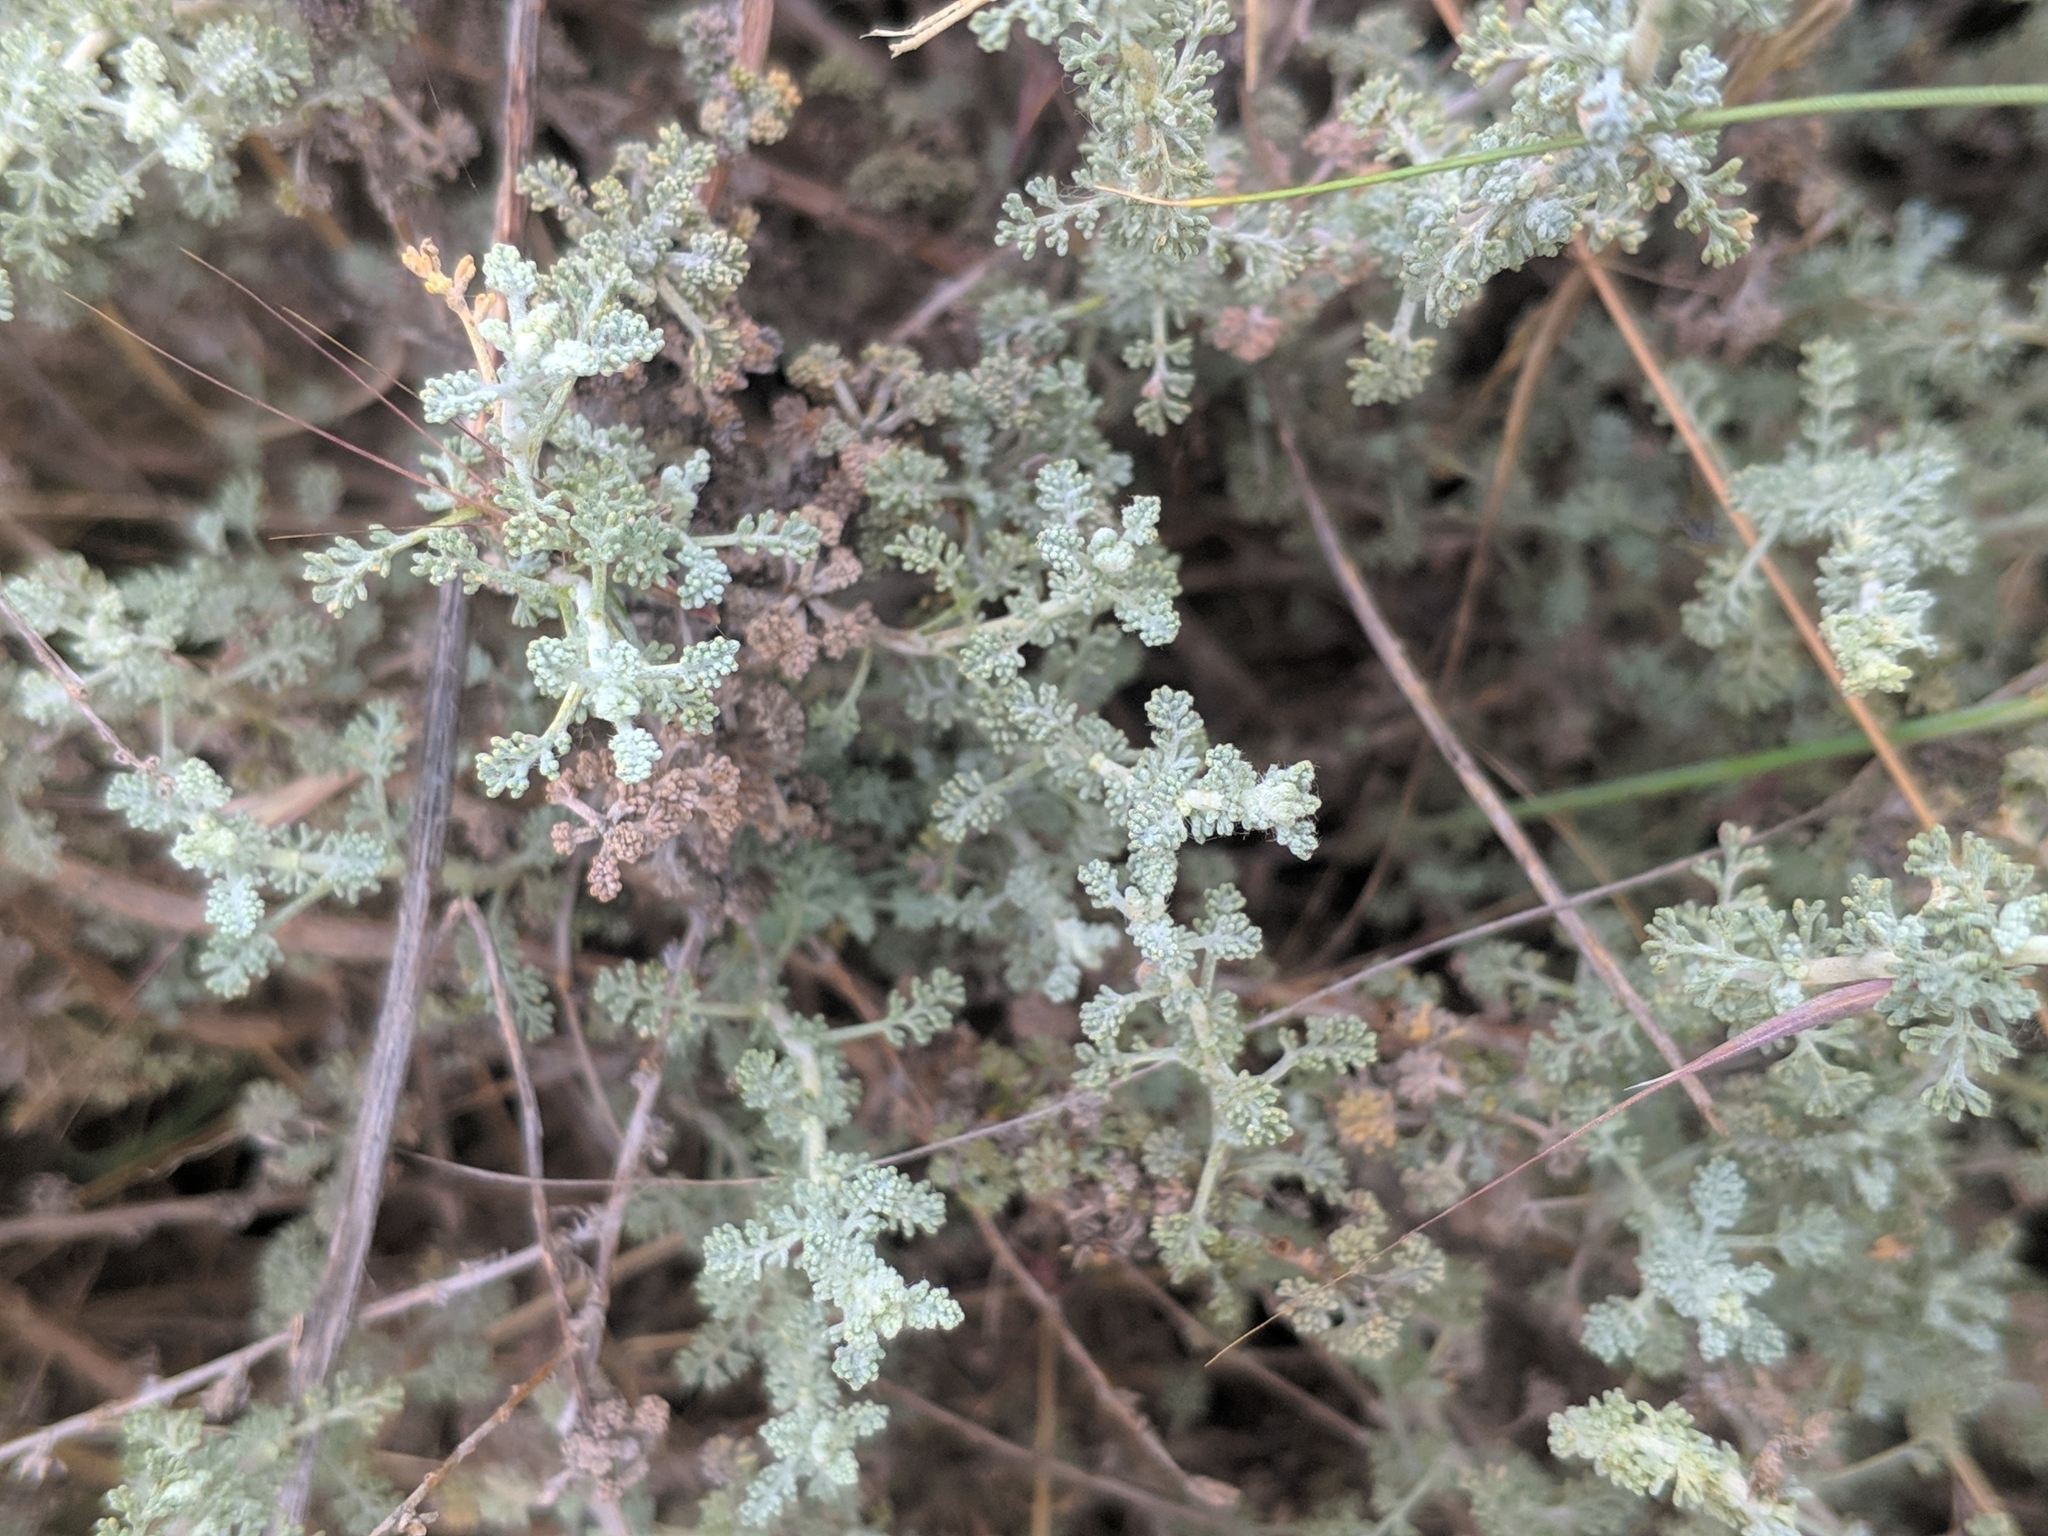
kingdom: Plantae
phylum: Tracheophyta
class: Magnoliopsida
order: Asterales
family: Asteraceae
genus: Artemisia
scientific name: Artemisia herba-alba
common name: White wormwood
